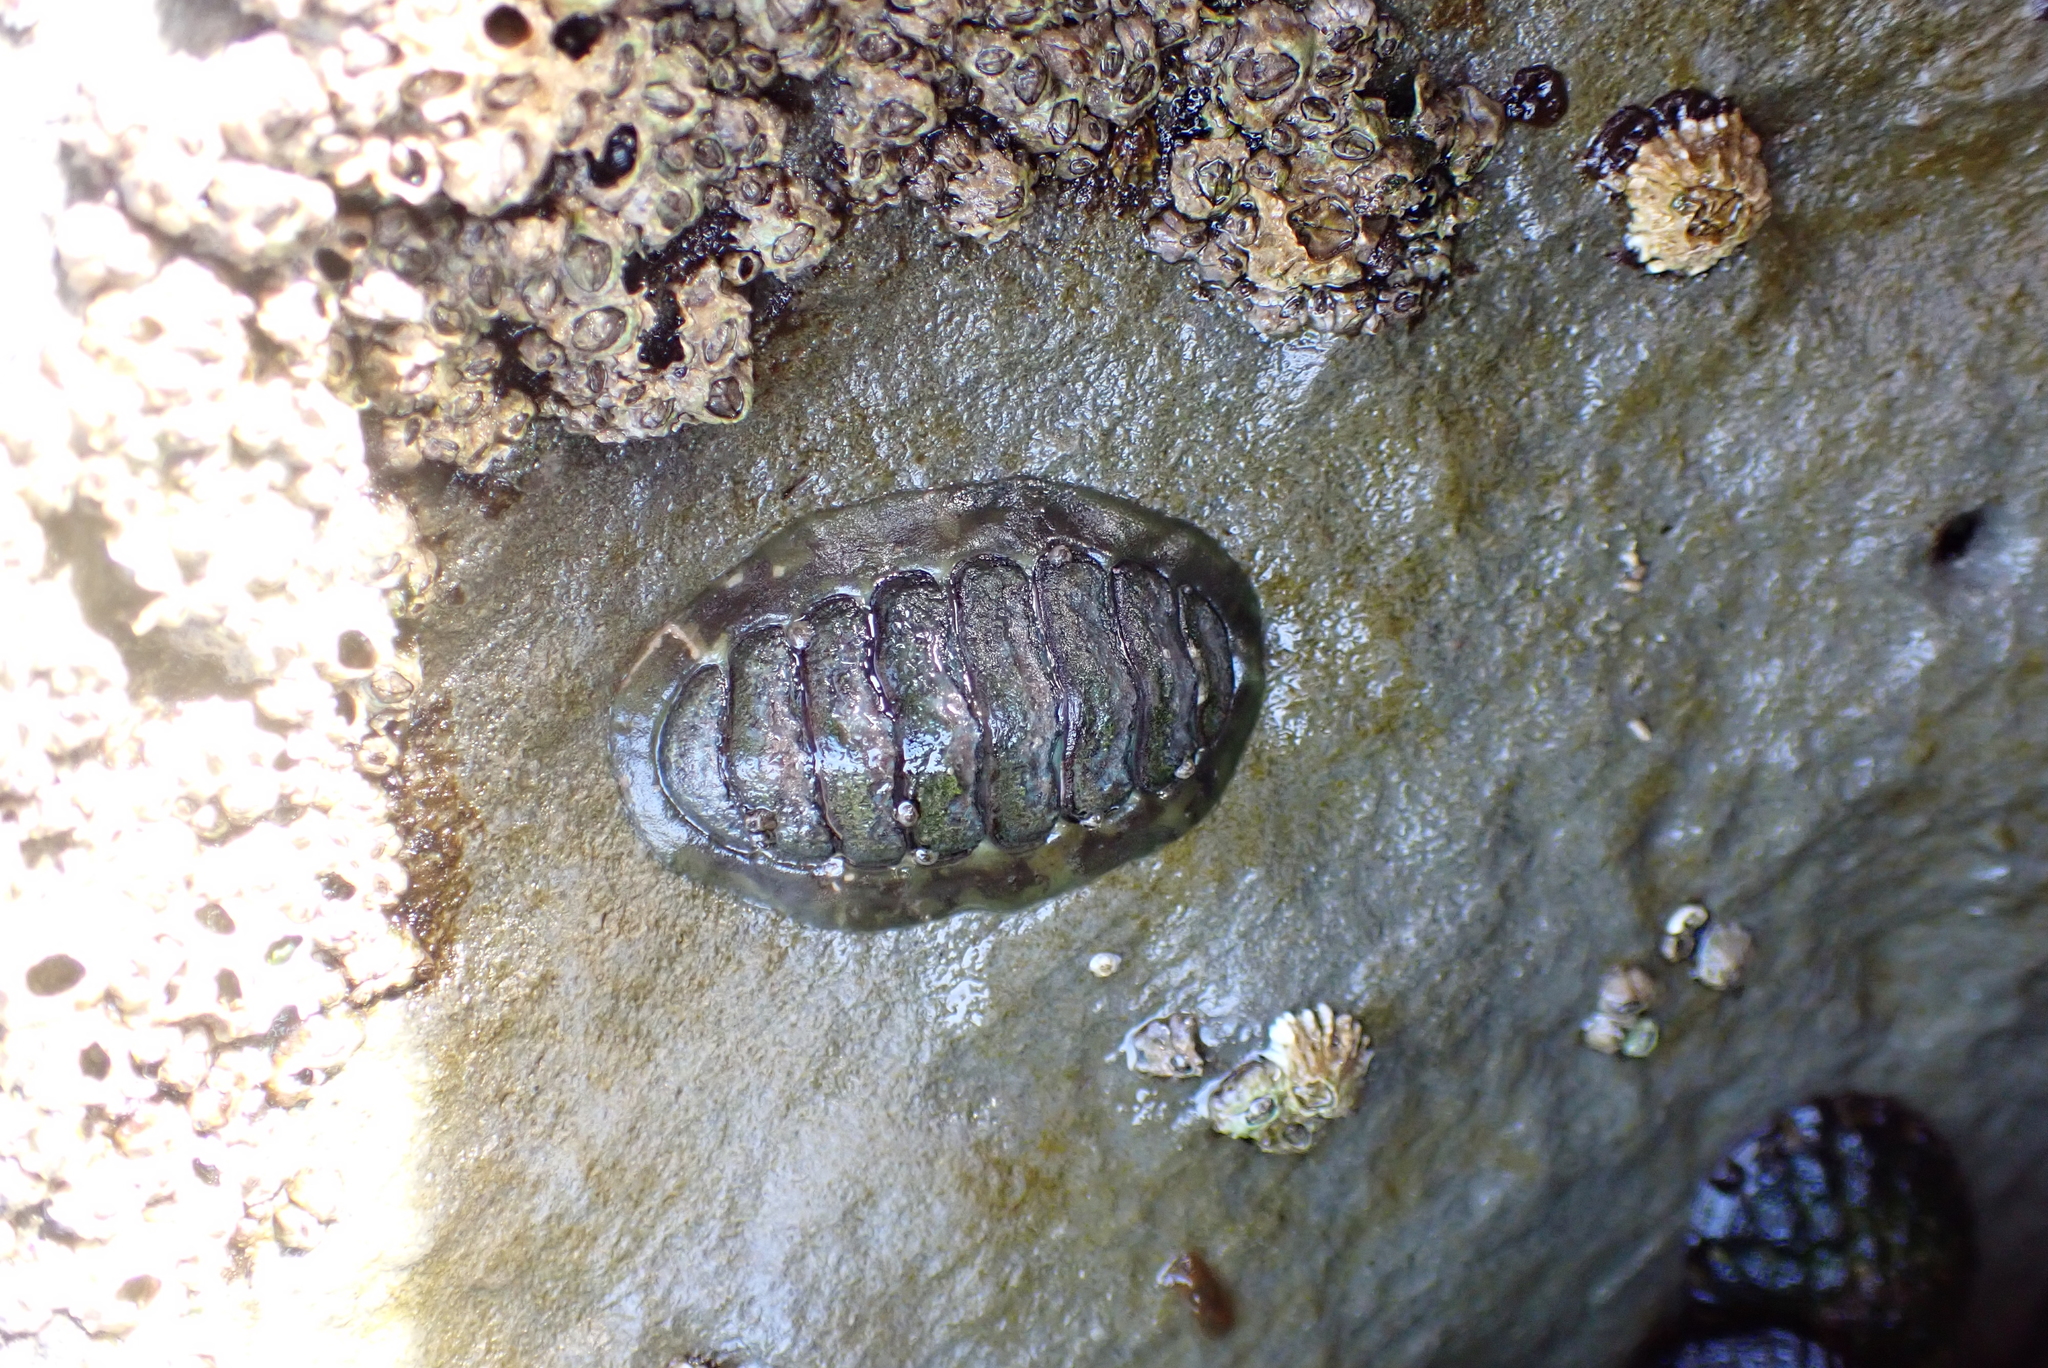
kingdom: Animalia
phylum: Mollusca
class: Polyplacophora
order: Chitonida
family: Tonicellidae
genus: Cyanoplax
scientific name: Cyanoplax hartwegii
